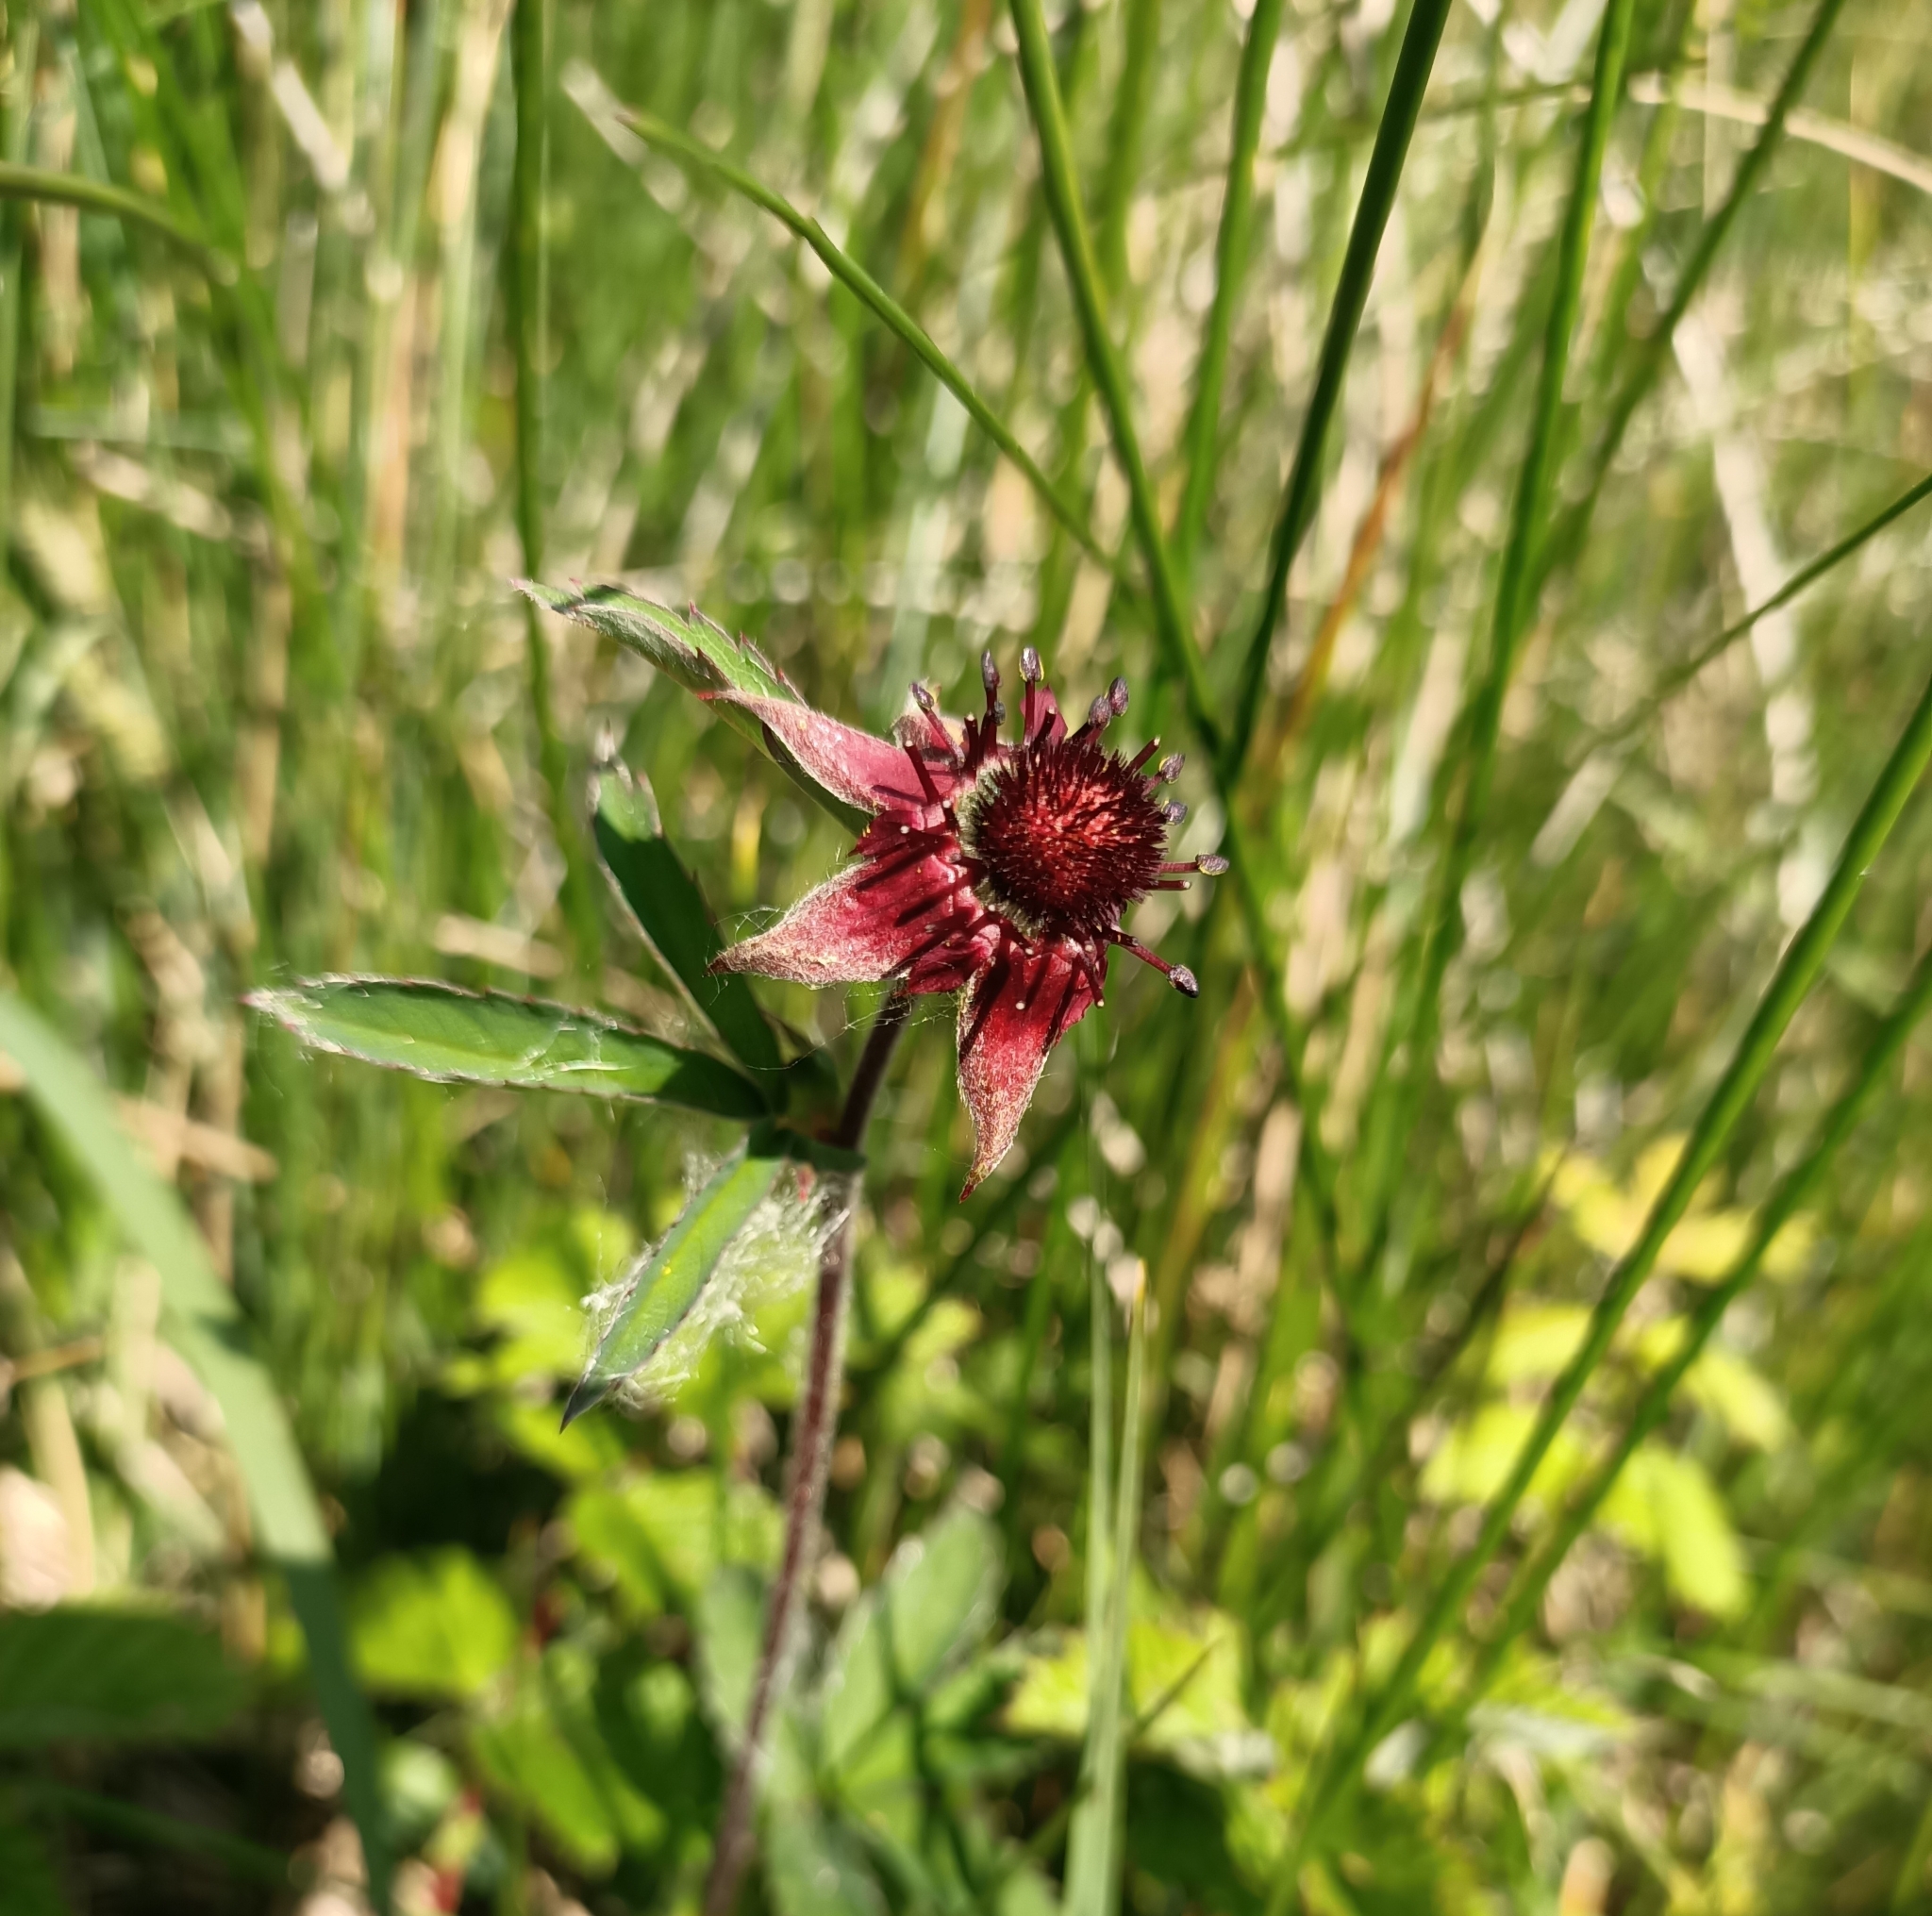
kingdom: Plantae
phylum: Tracheophyta
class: Magnoliopsida
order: Rosales
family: Rosaceae
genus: Comarum
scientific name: Comarum palustre
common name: Marsh cinquefoil
